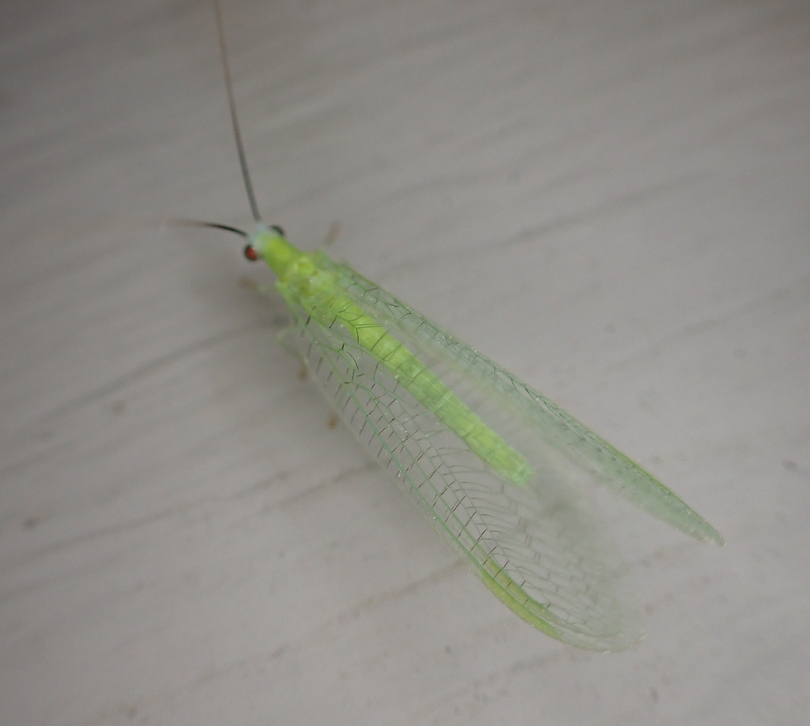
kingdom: Animalia
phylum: Arthropoda
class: Insecta
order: Neuroptera
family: Chrysopidae
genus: Chrysopa
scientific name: Chrysopa nigricornis
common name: Black-horned green lacewing
